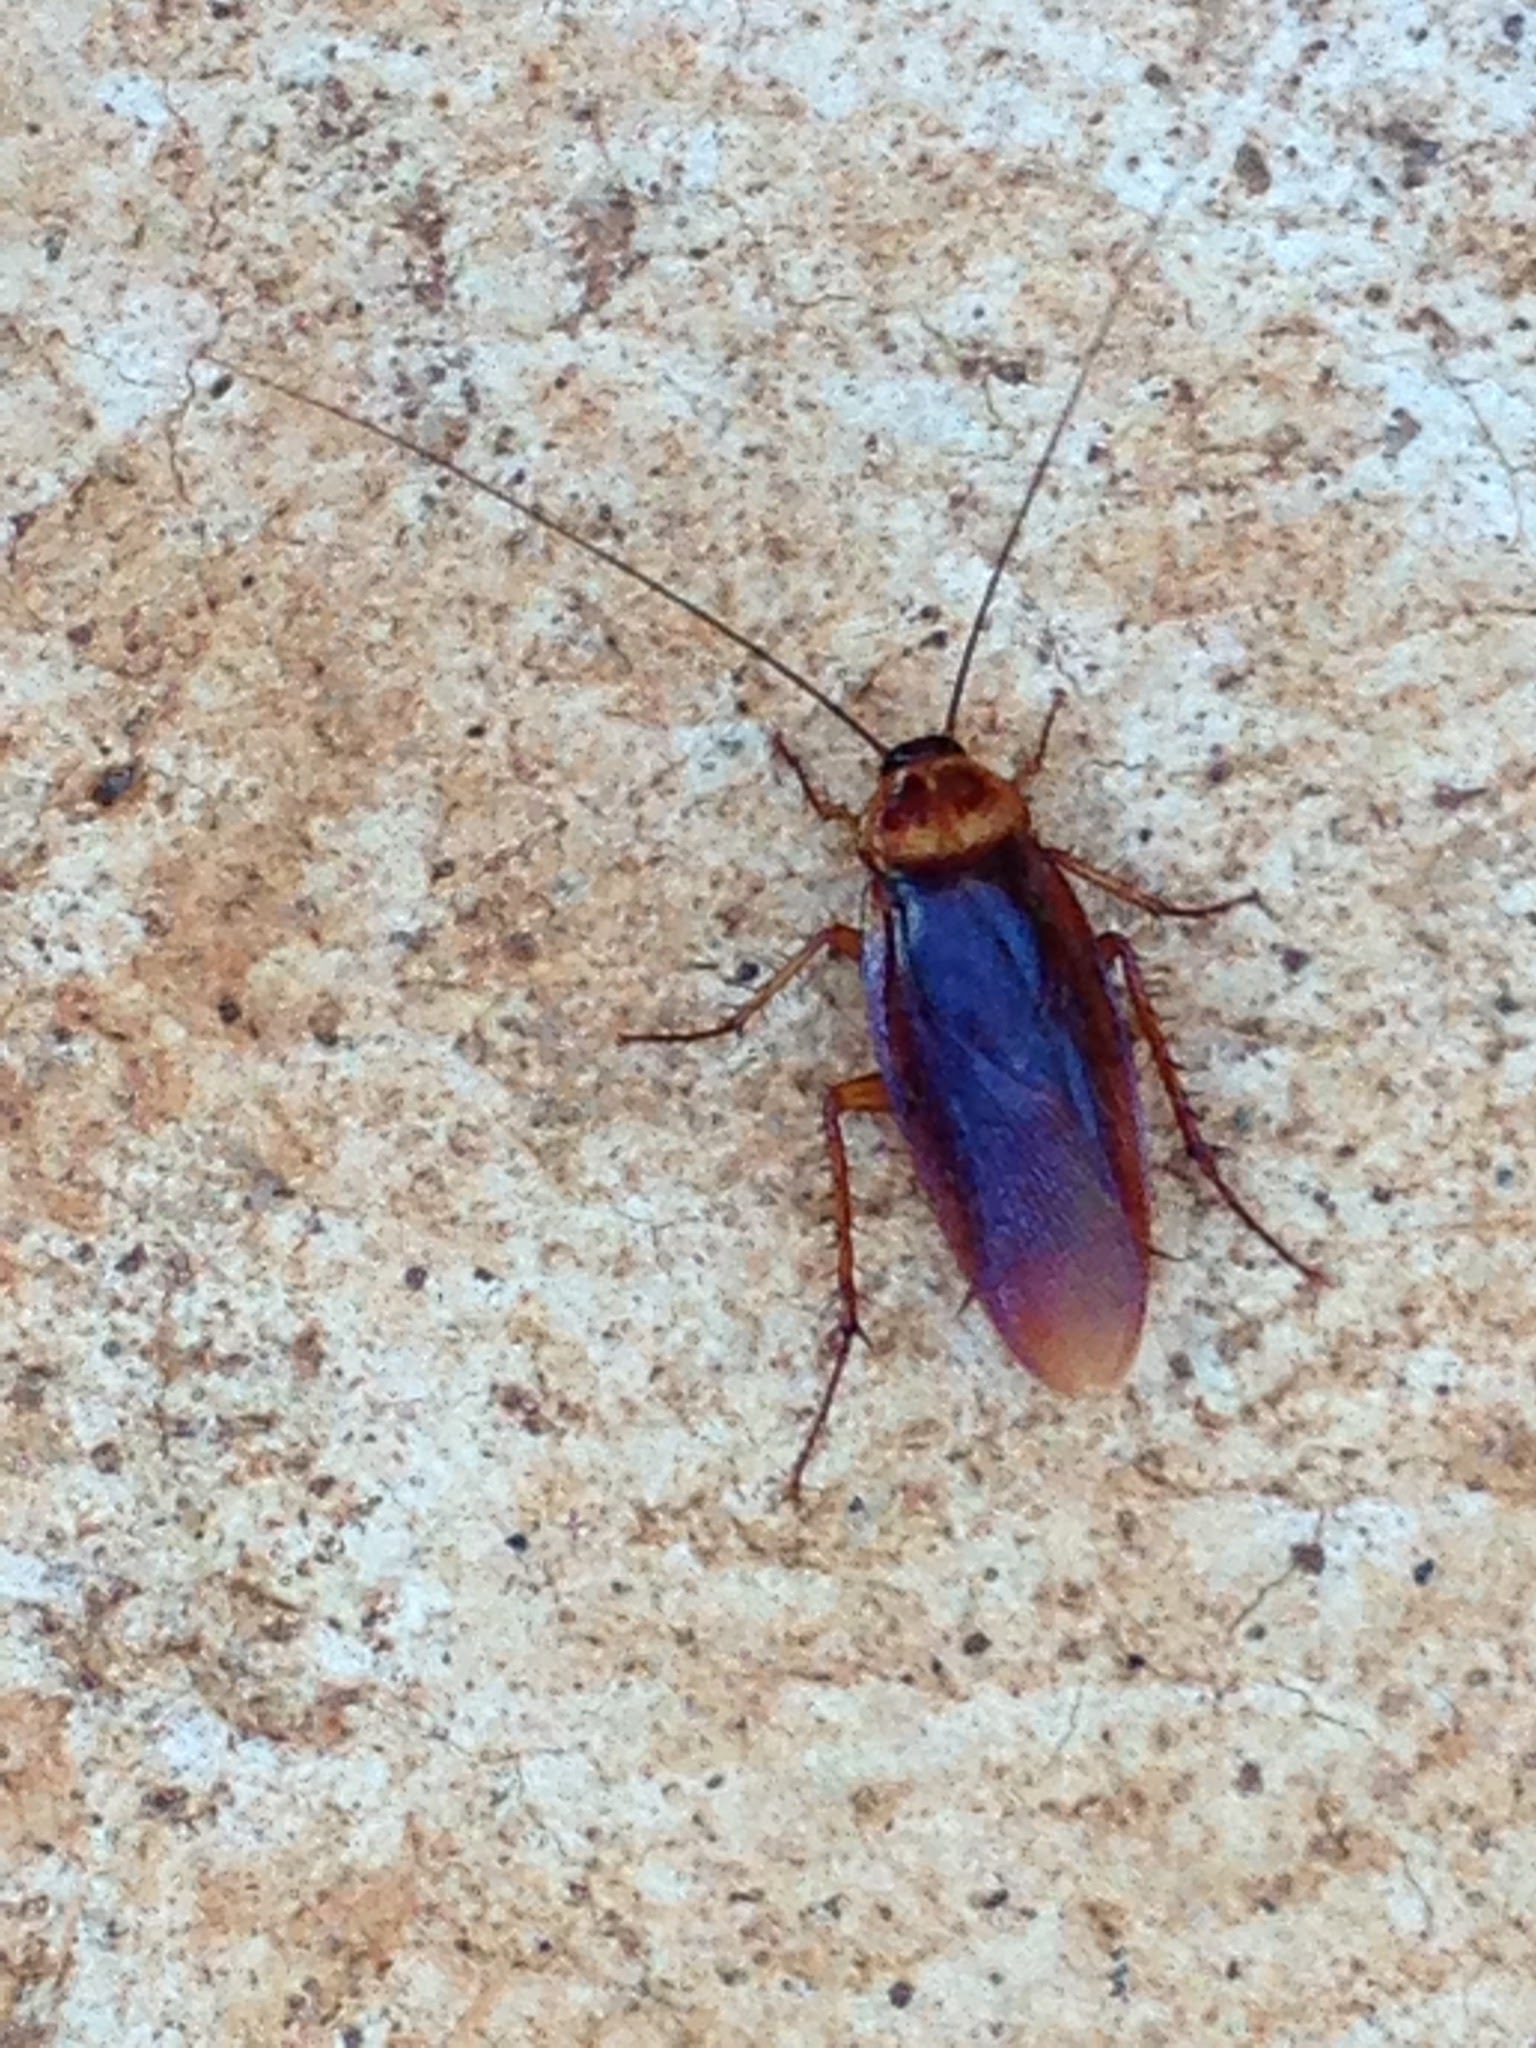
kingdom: Animalia
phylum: Arthropoda
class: Insecta
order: Blattodea
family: Blattidae
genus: Periplaneta
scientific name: Periplaneta americana
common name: American cockroach
